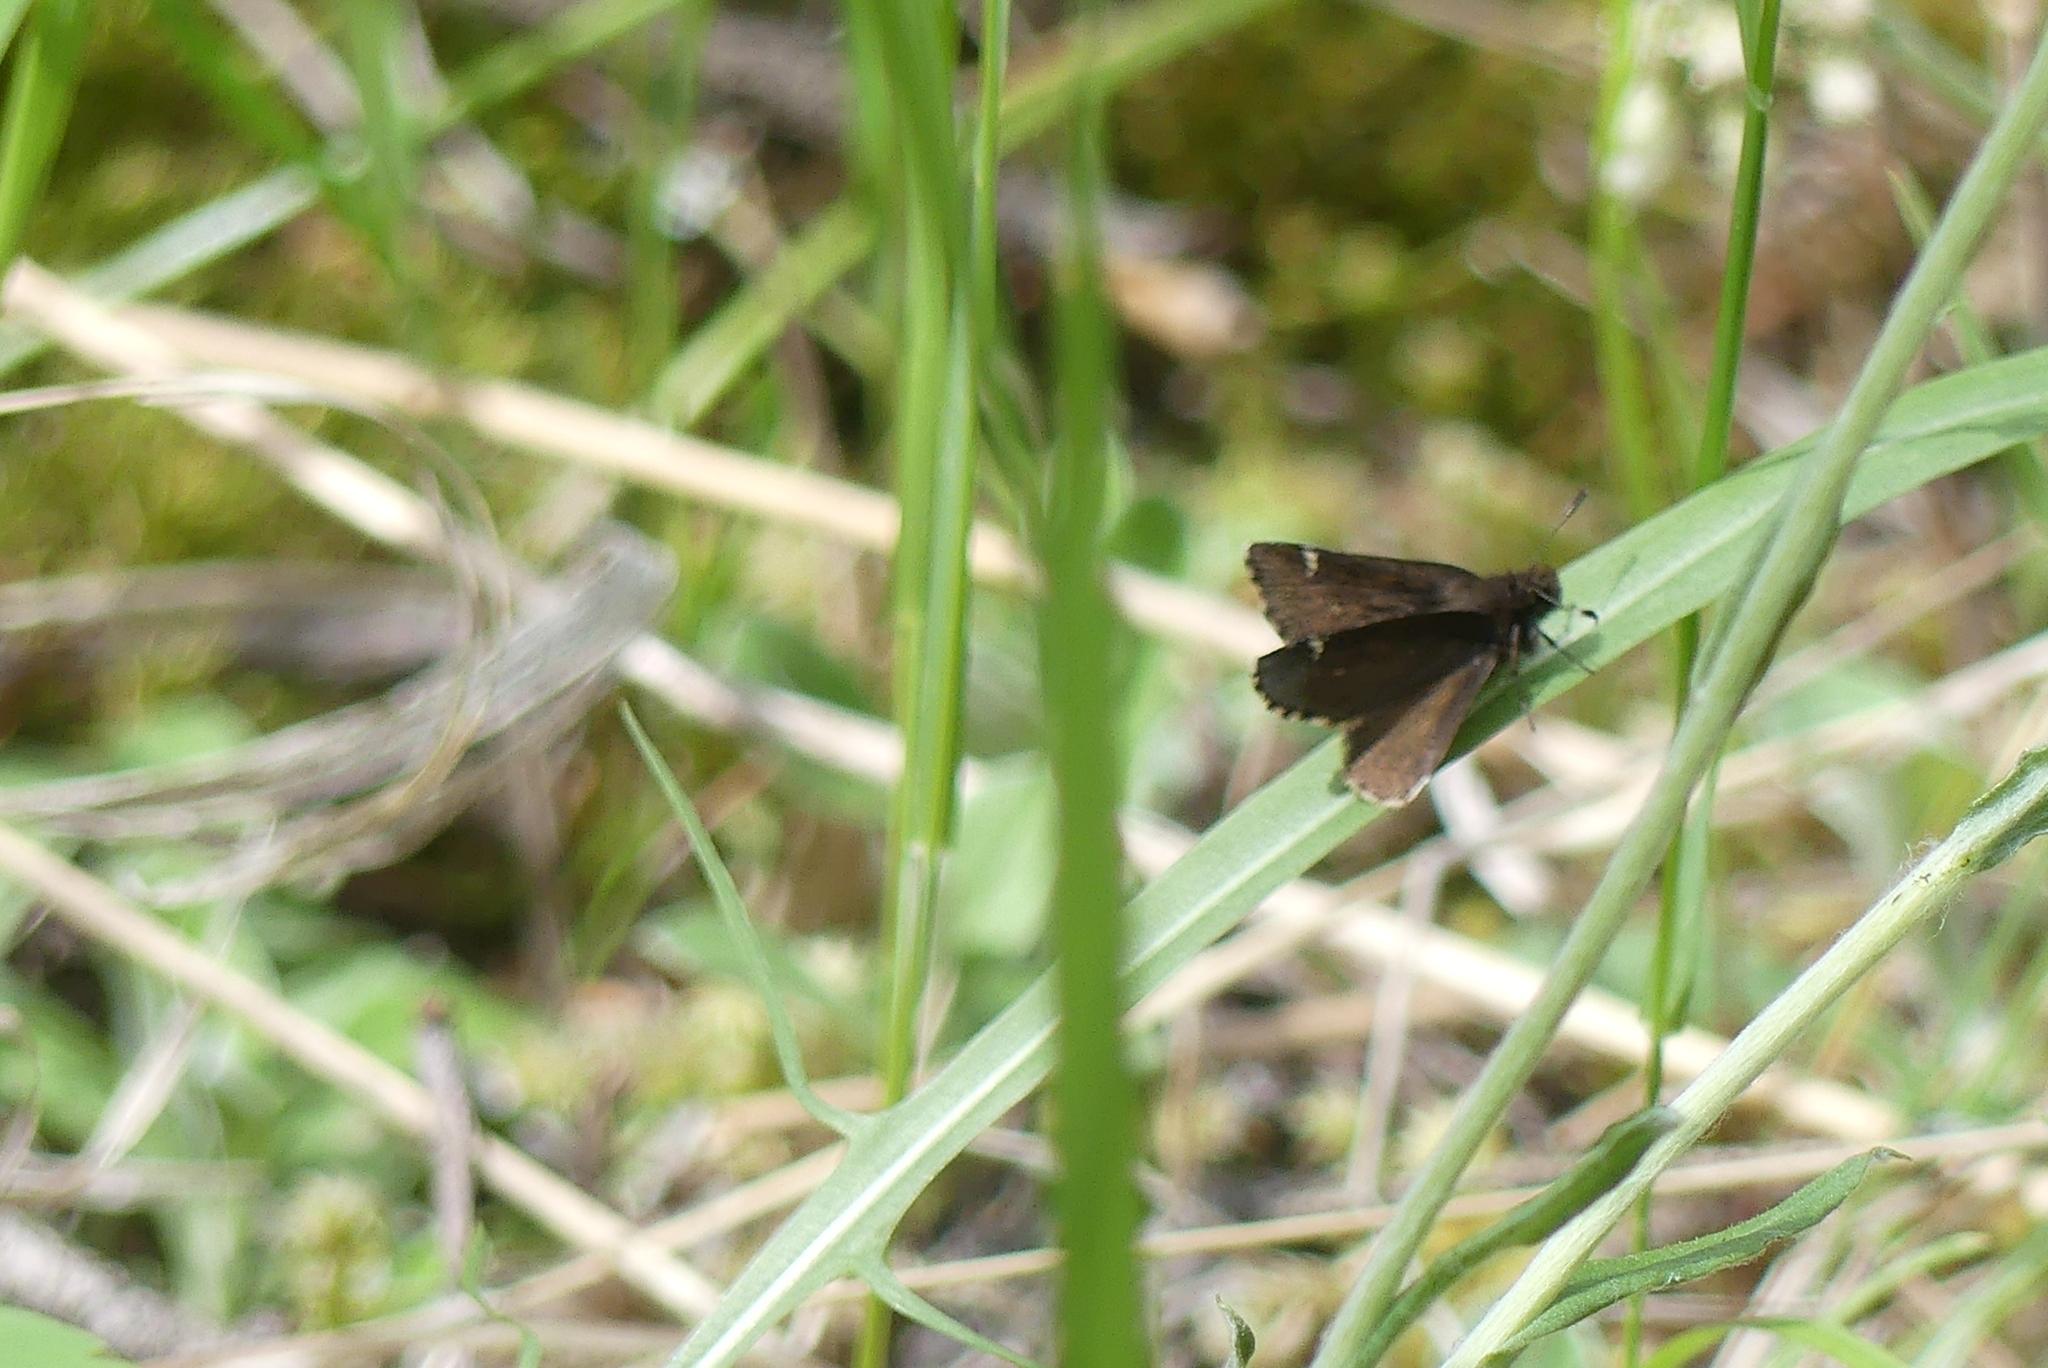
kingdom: Animalia
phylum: Arthropoda
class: Insecta
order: Lepidoptera
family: Hesperiidae
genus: Mastor
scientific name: Mastor vialis
